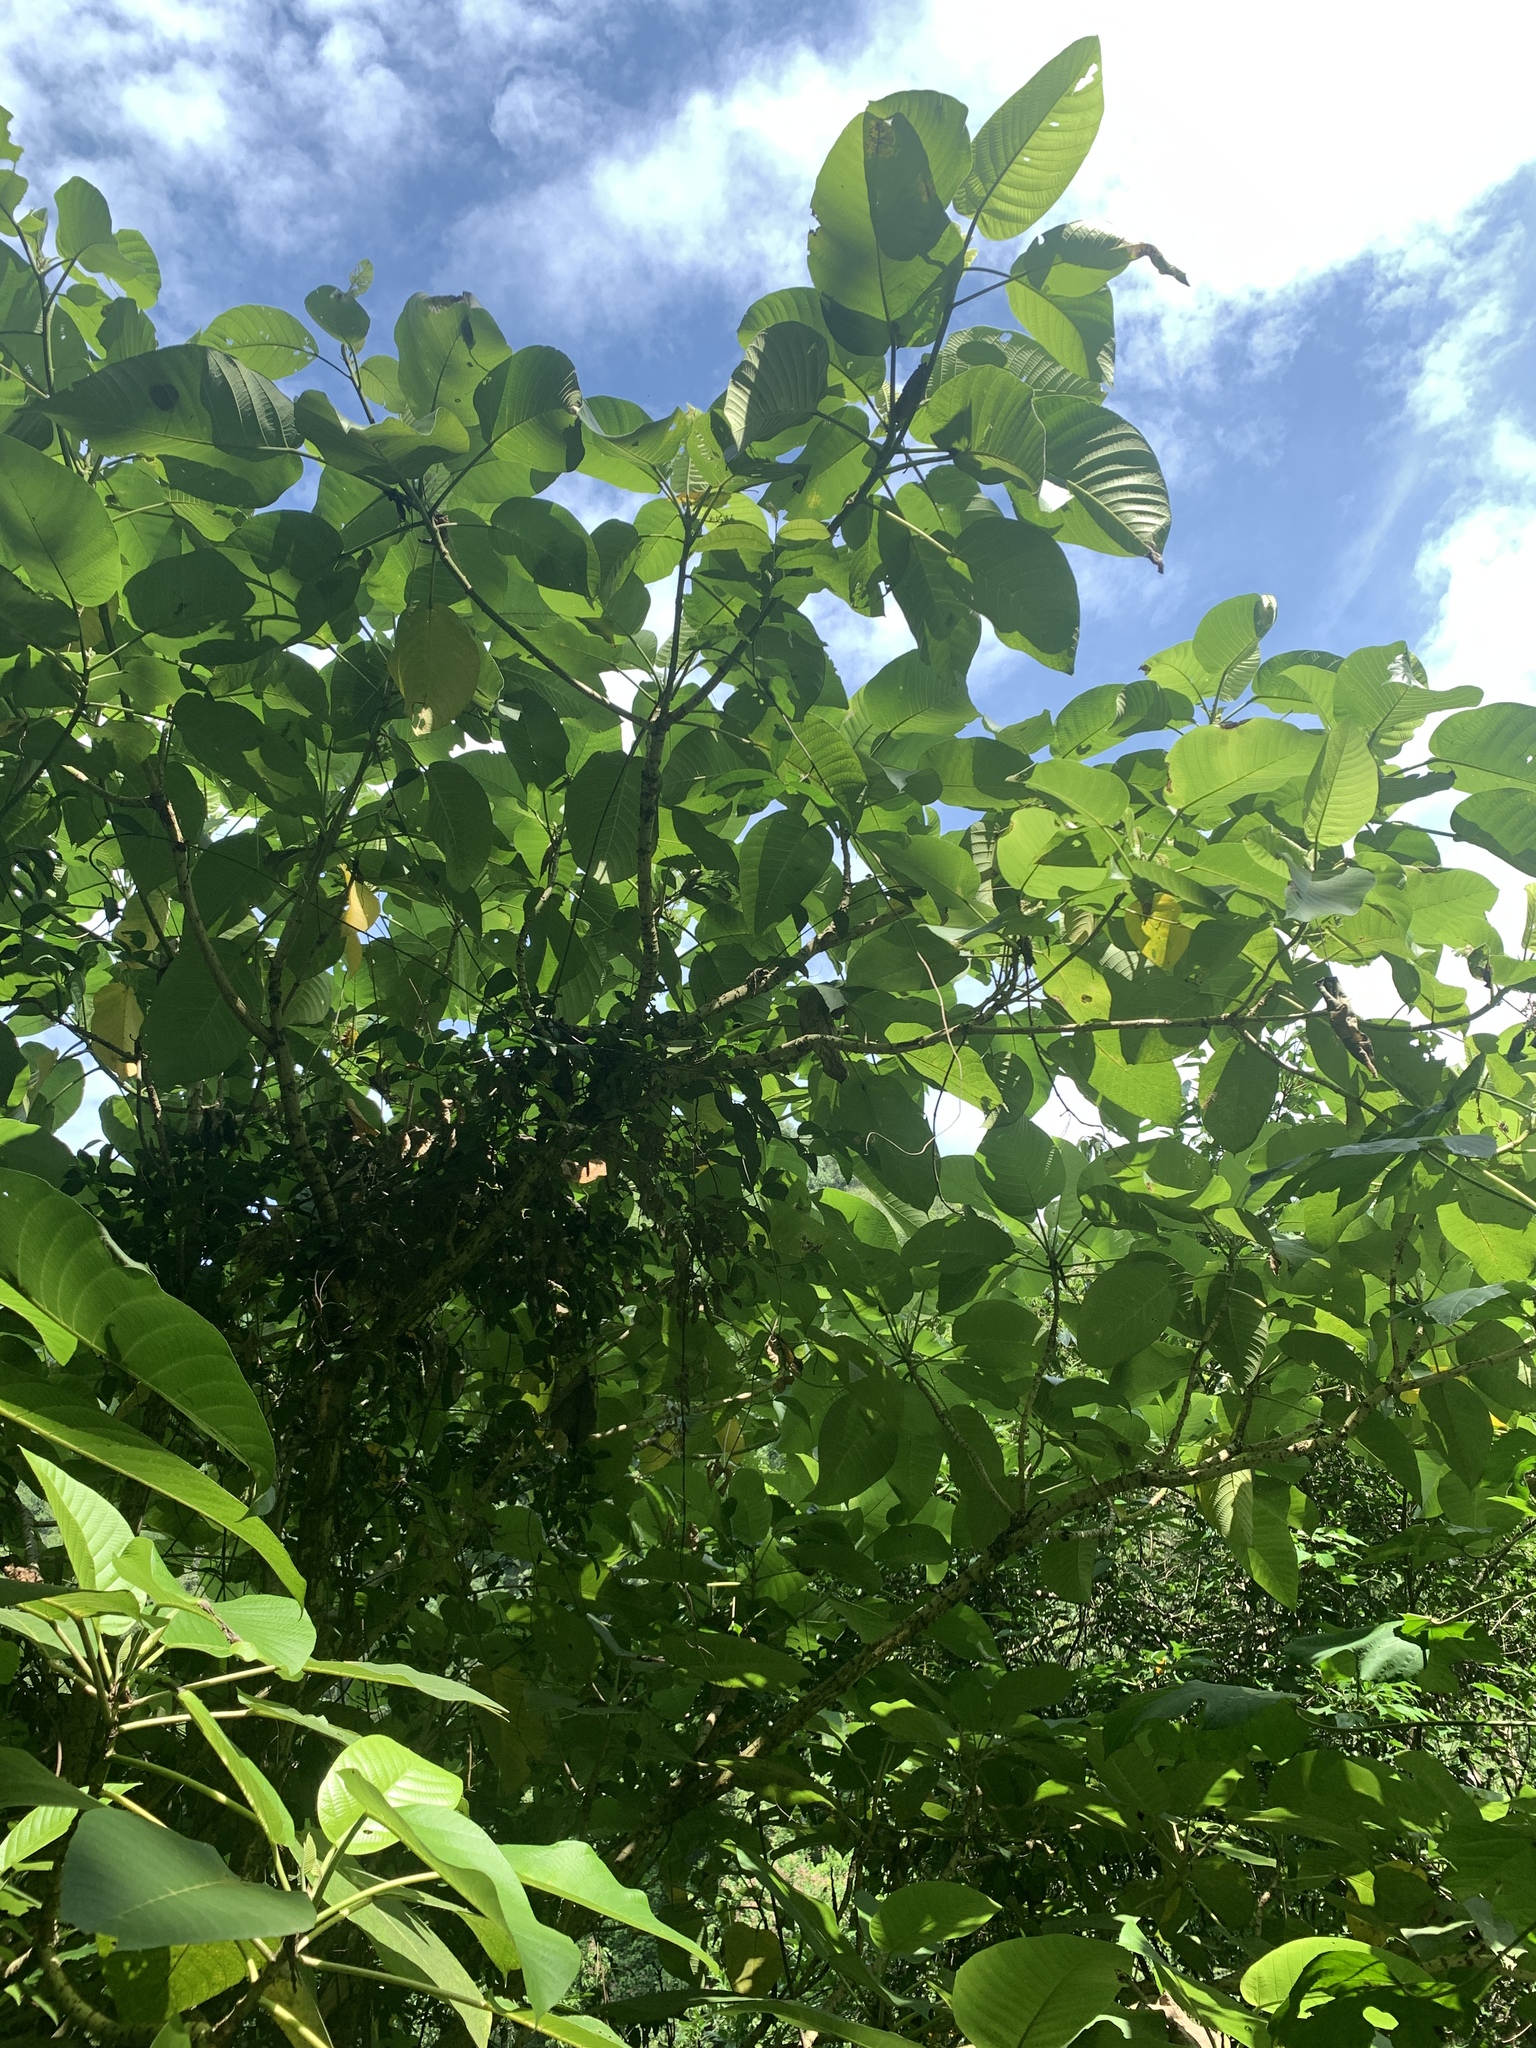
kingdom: Plantae
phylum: Tracheophyta
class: Magnoliopsida
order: Rosales
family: Urticaceae
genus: Dendrocnide
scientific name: Dendrocnide meyeniana
